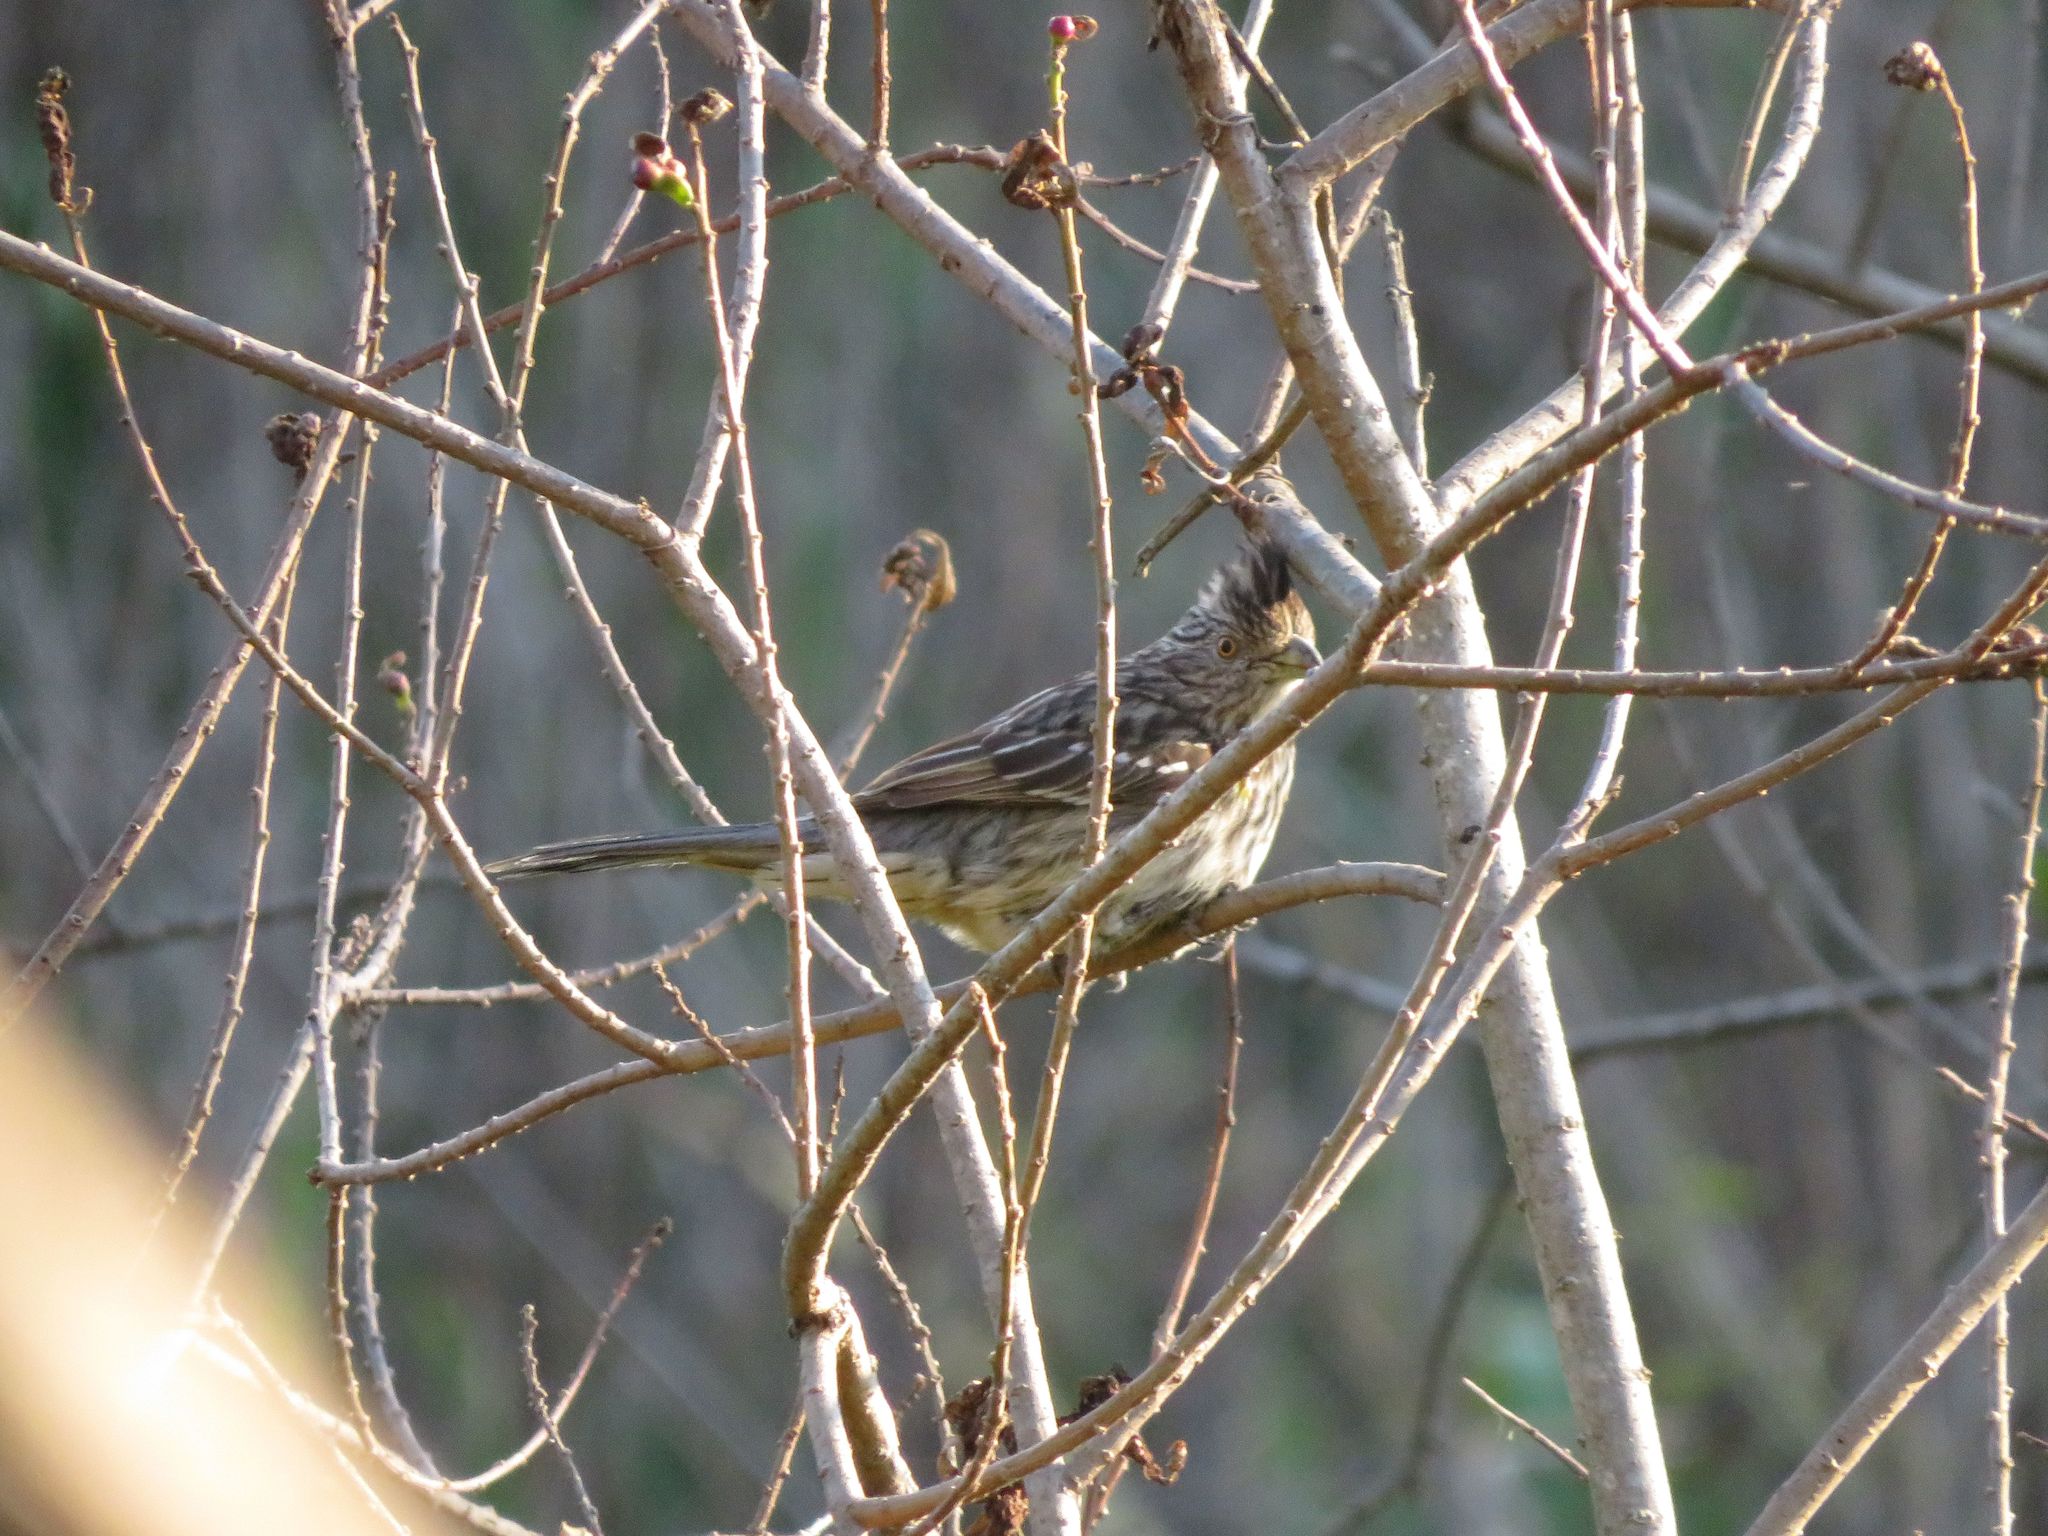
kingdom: Animalia
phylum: Chordata
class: Aves
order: Passeriformes
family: Cotingidae
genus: Phytotoma
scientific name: Phytotoma rutila
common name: White-tipped plantcutter
